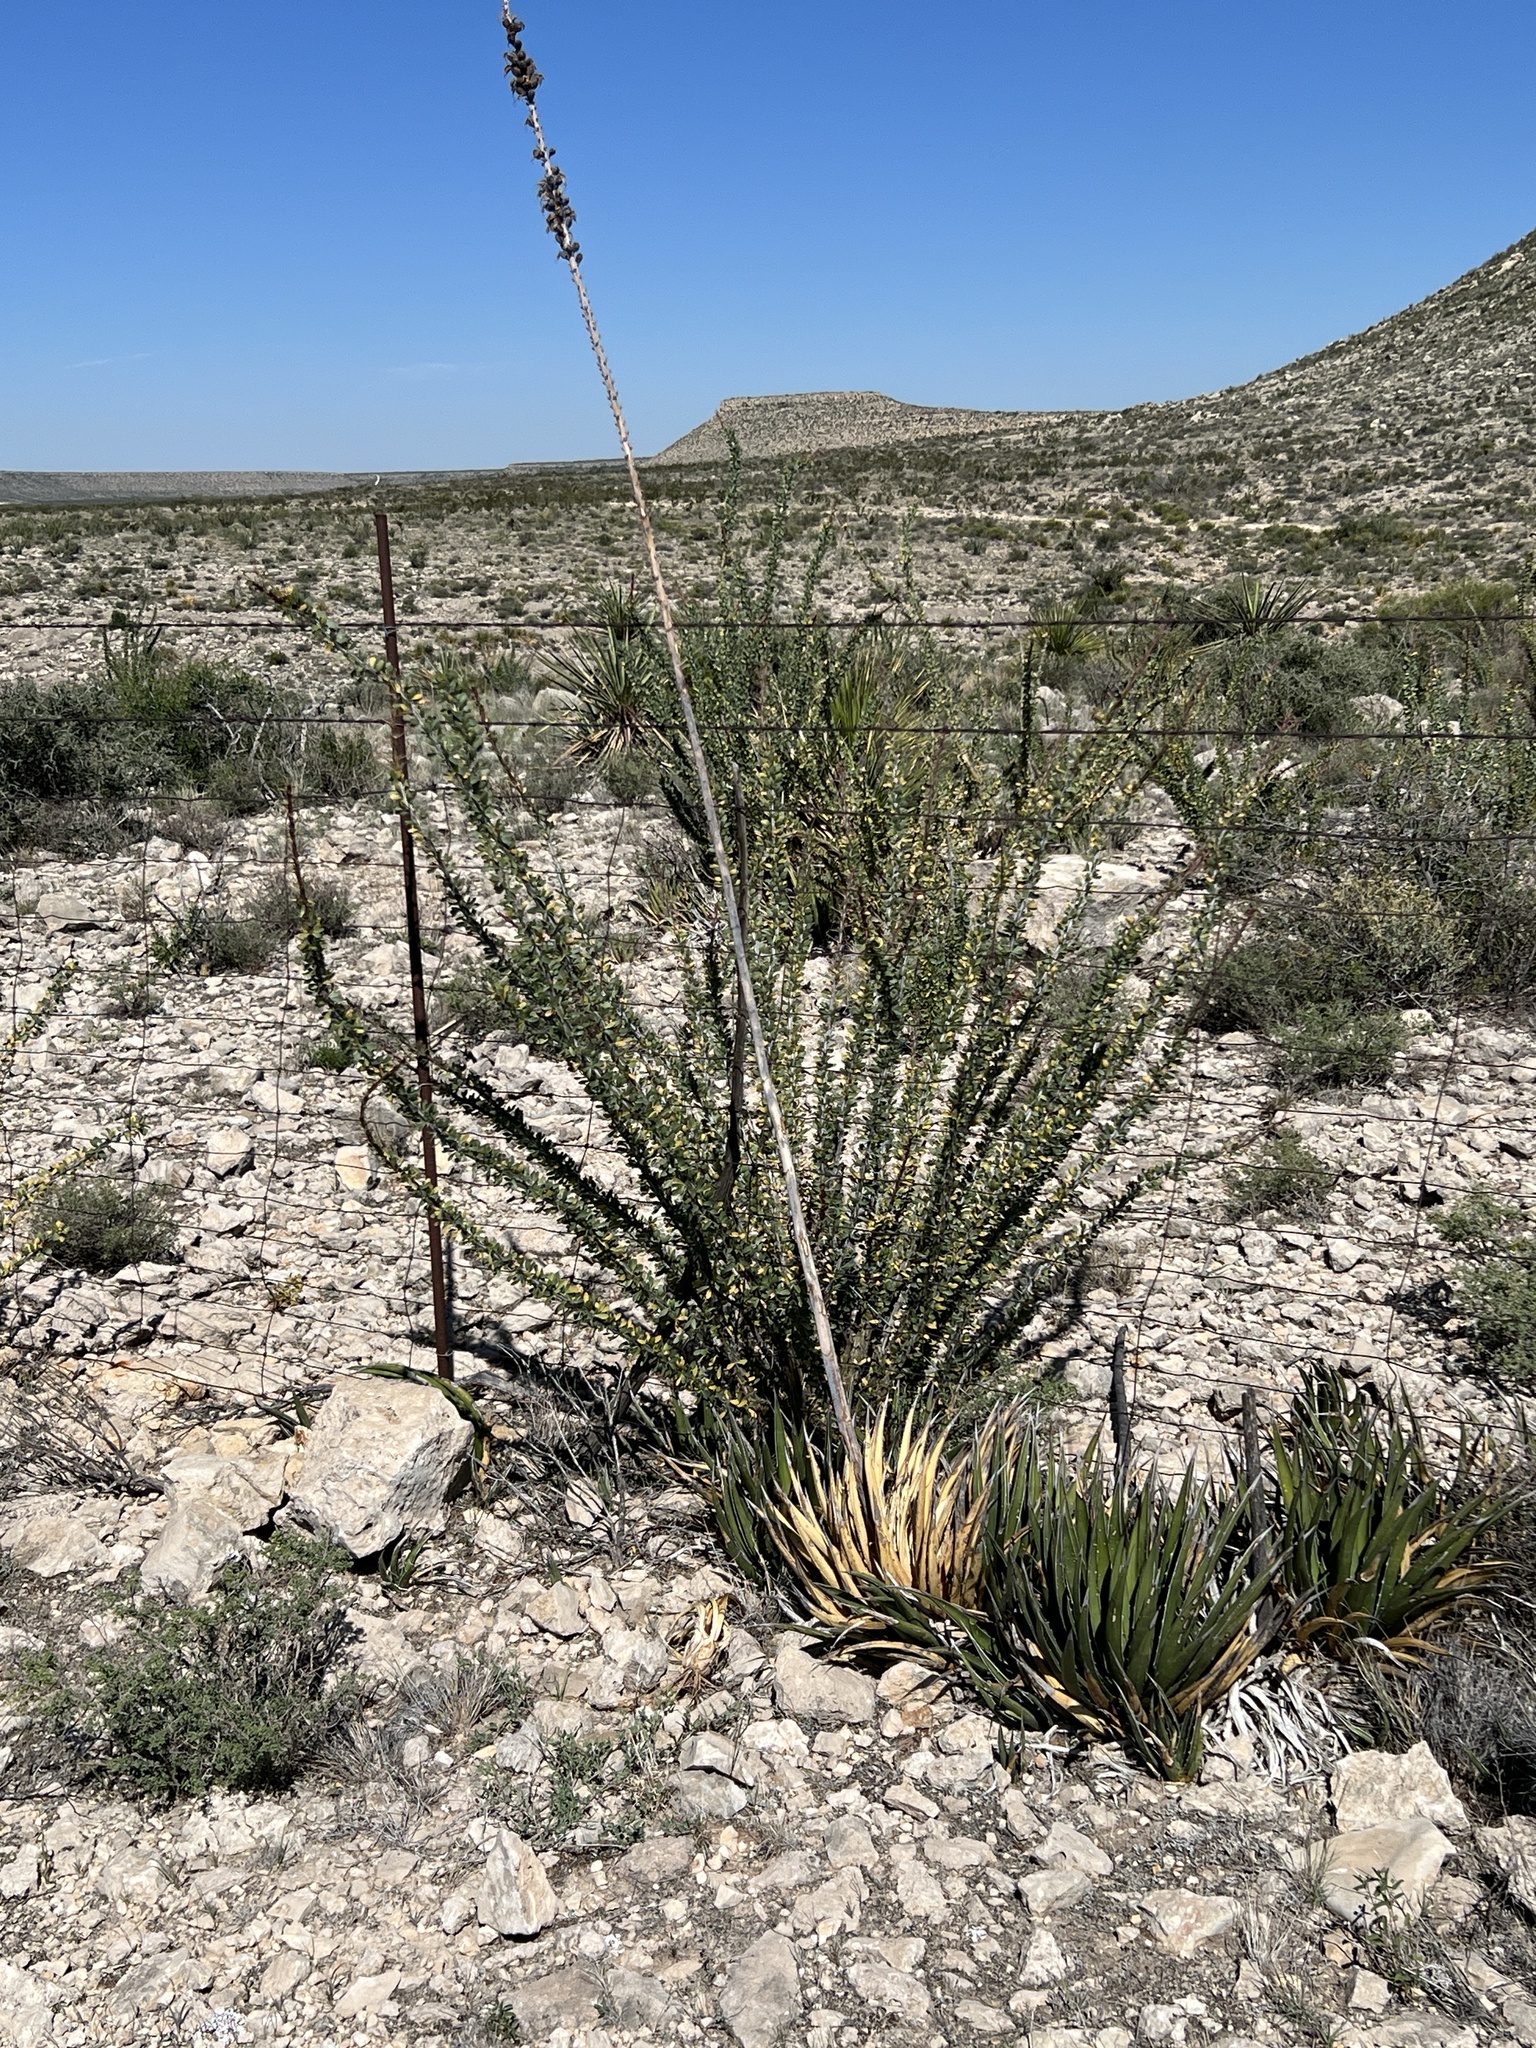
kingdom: Plantae
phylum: Tracheophyta
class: Magnoliopsida
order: Ericales
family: Fouquieriaceae
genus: Fouquieria
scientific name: Fouquieria splendens
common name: Vine-cactus
